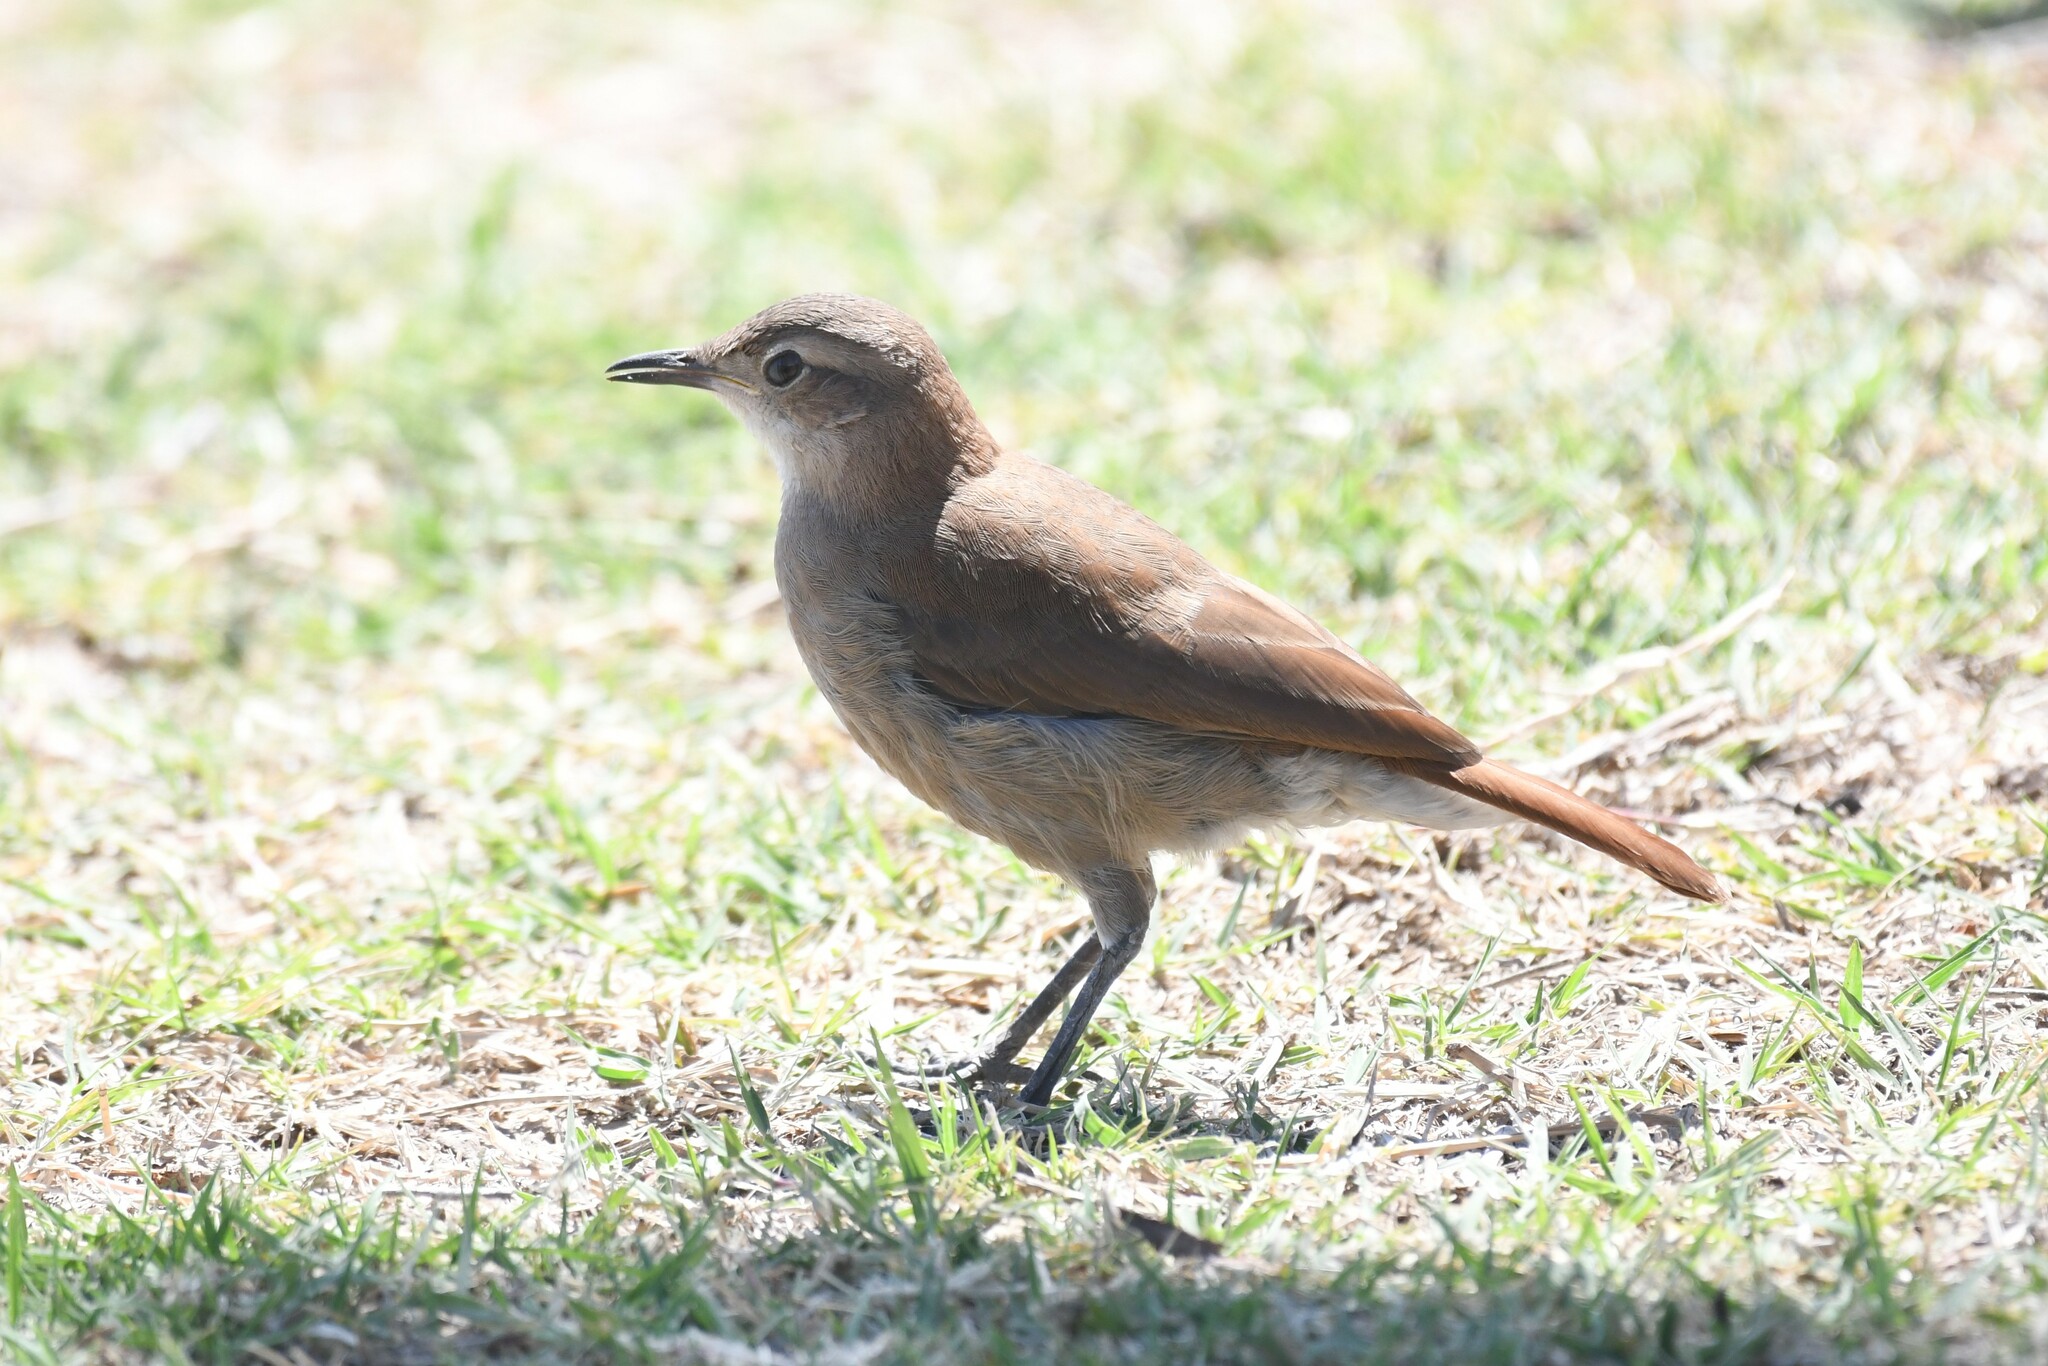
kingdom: Animalia
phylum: Chordata
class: Aves
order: Passeriformes
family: Furnariidae
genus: Furnarius
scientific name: Furnarius rufus
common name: Rufous hornero
